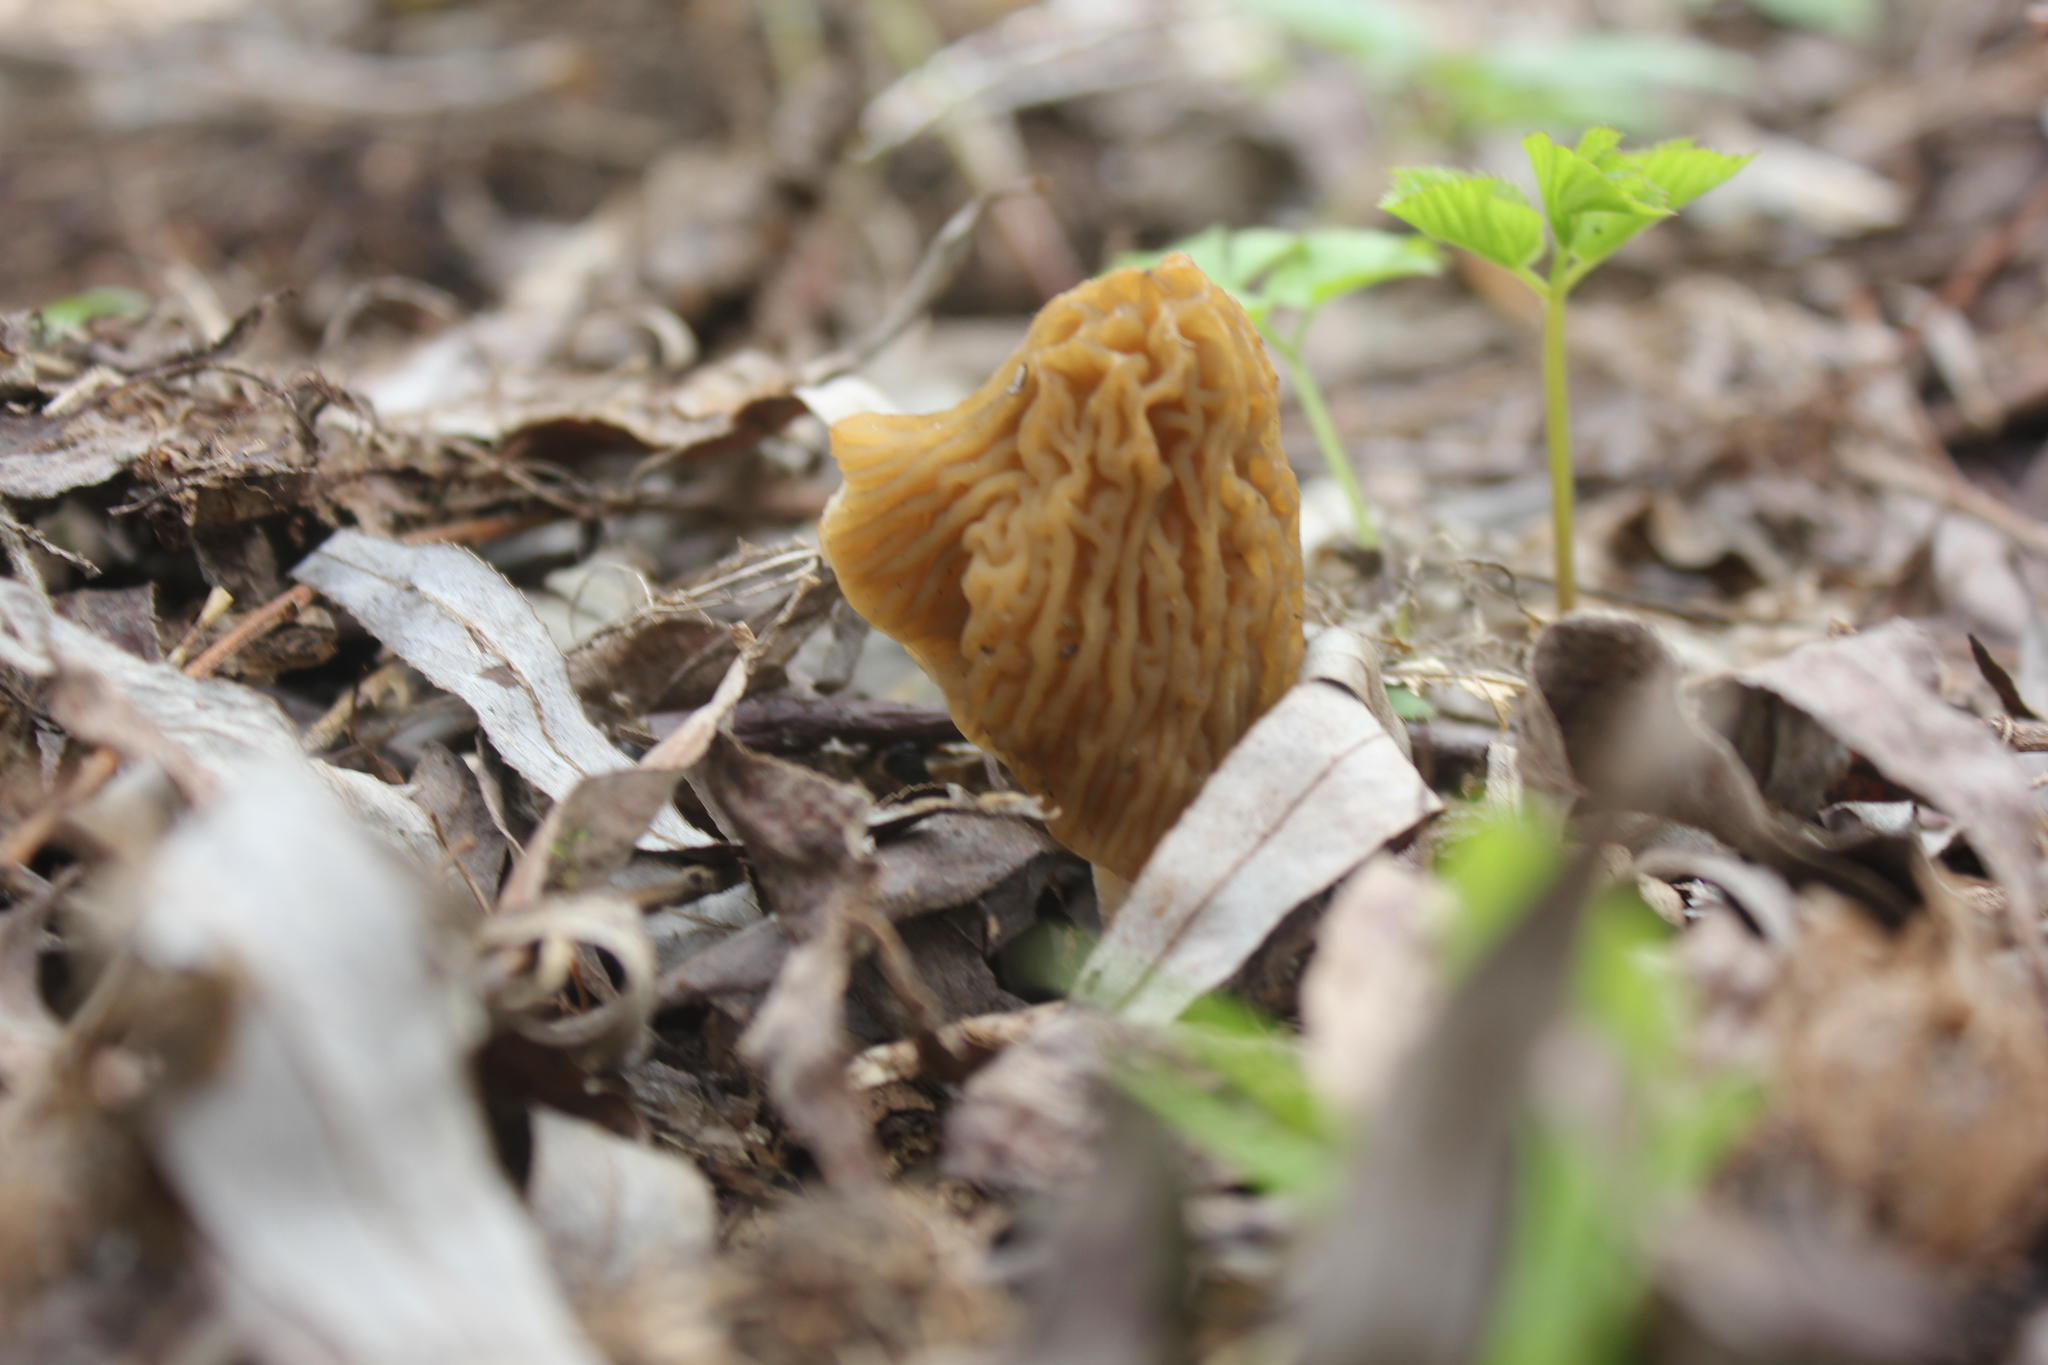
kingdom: Fungi
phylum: Ascomycota
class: Pezizomycetes
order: Pezizales
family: Morchellaceae
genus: Verpa
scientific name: Verpa bohemica
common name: Wrinkled thimble morel
